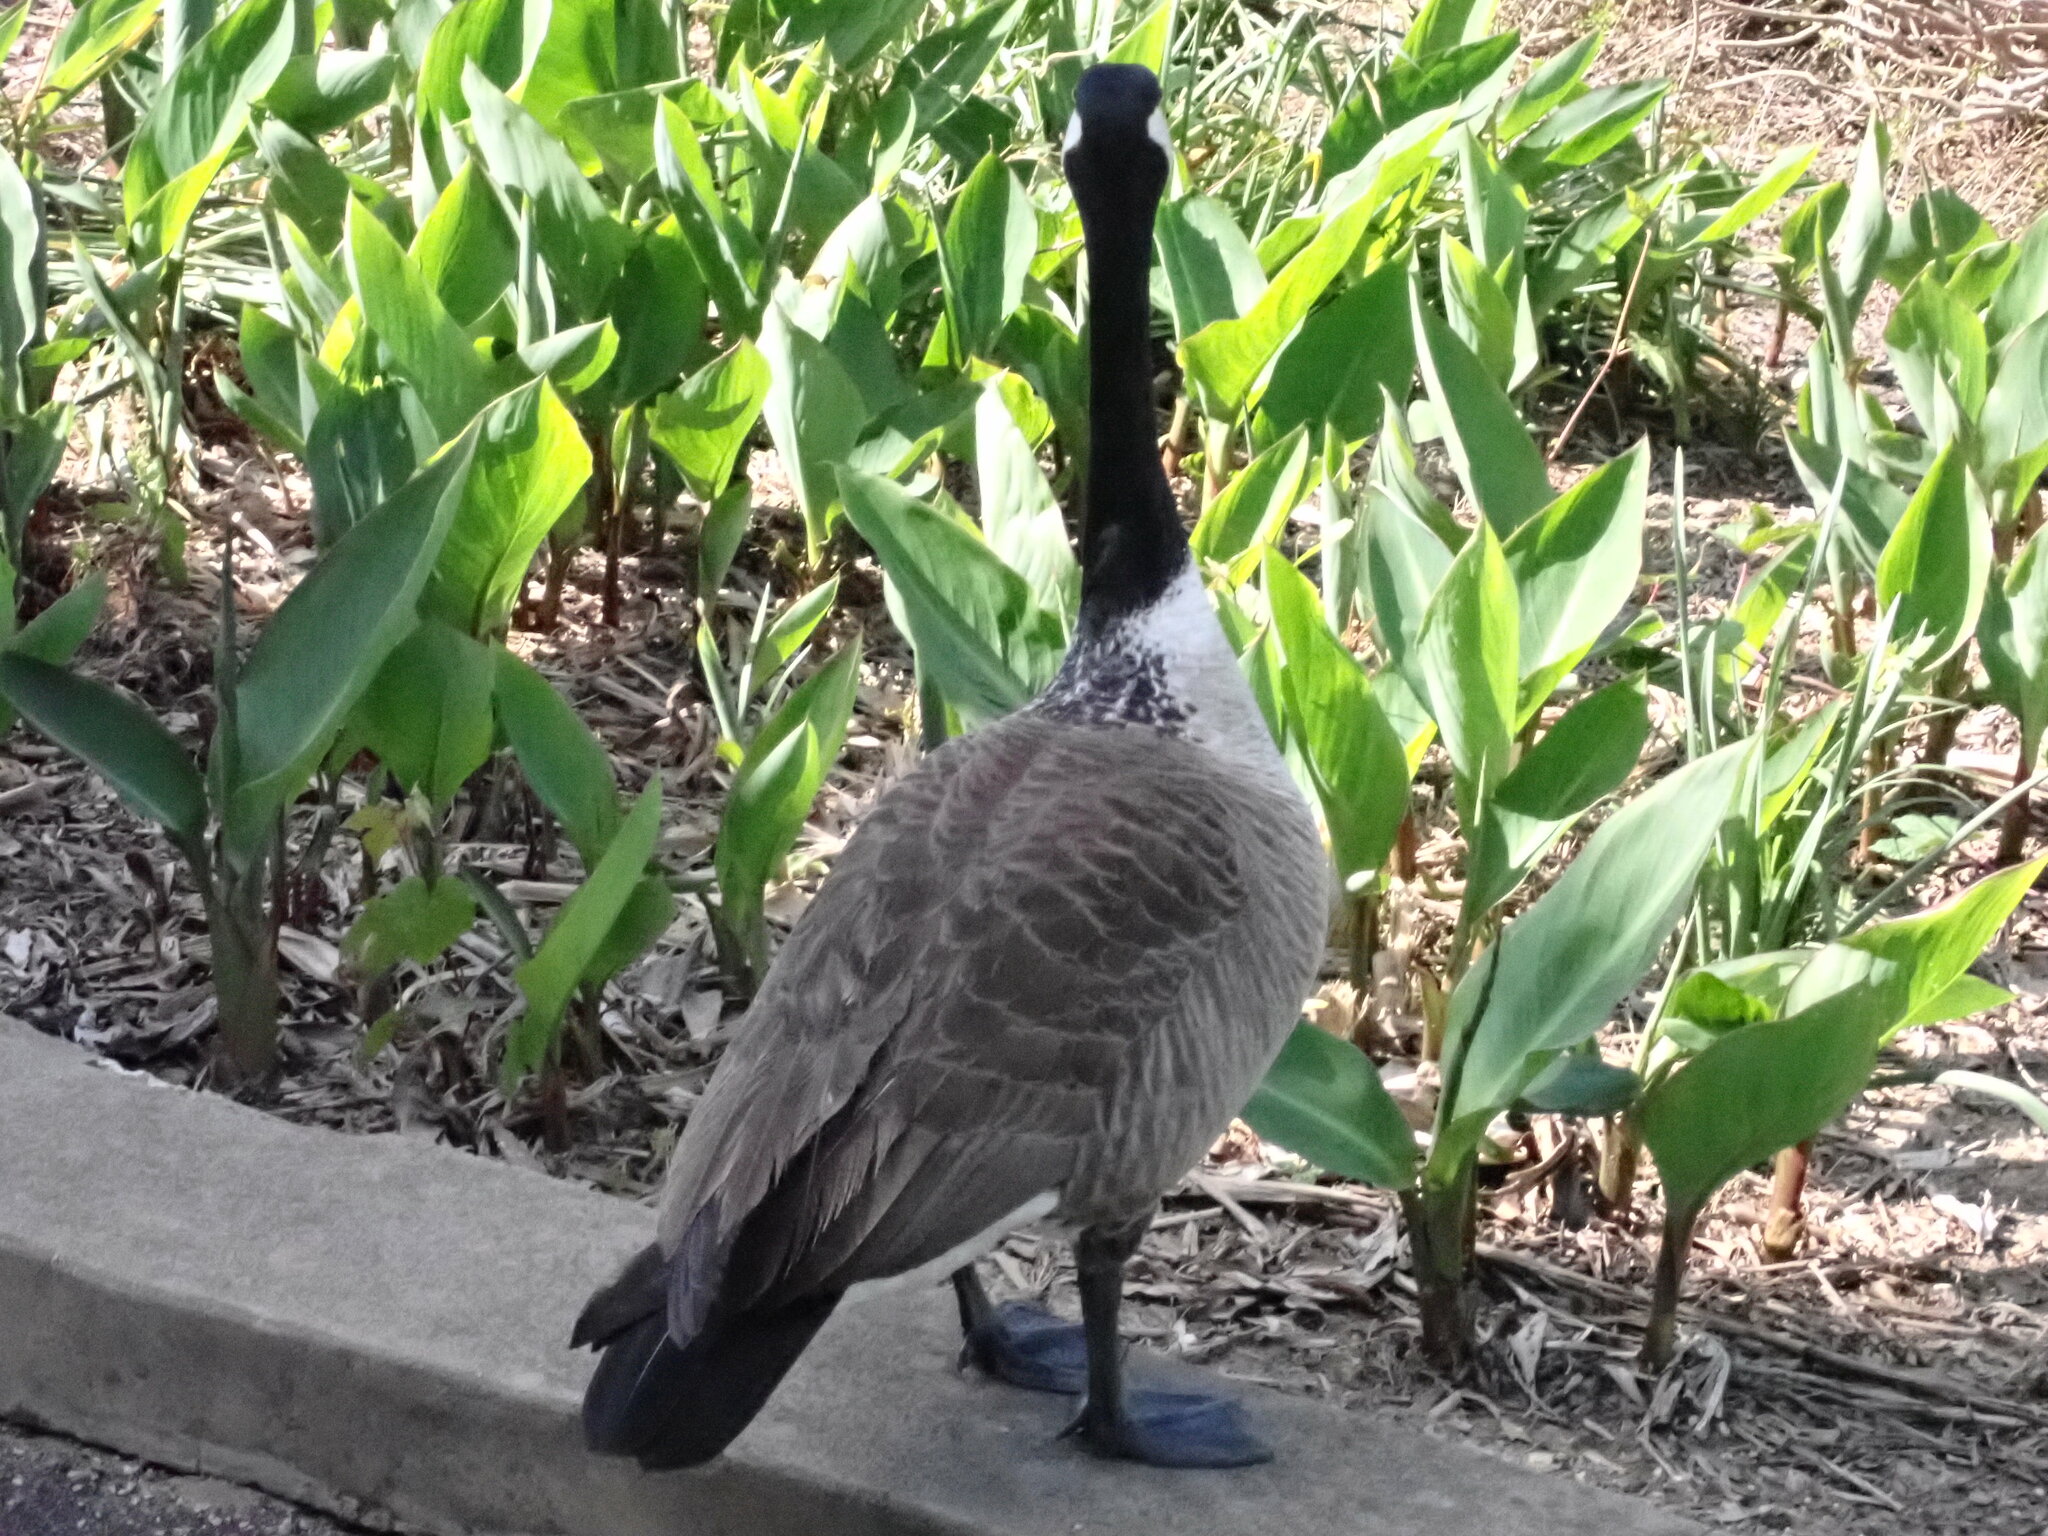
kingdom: Animalia
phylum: Chordata
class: Aves
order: Anseriformes
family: Anatidae
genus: Branta
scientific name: Branta canadensis
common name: Canada goose
